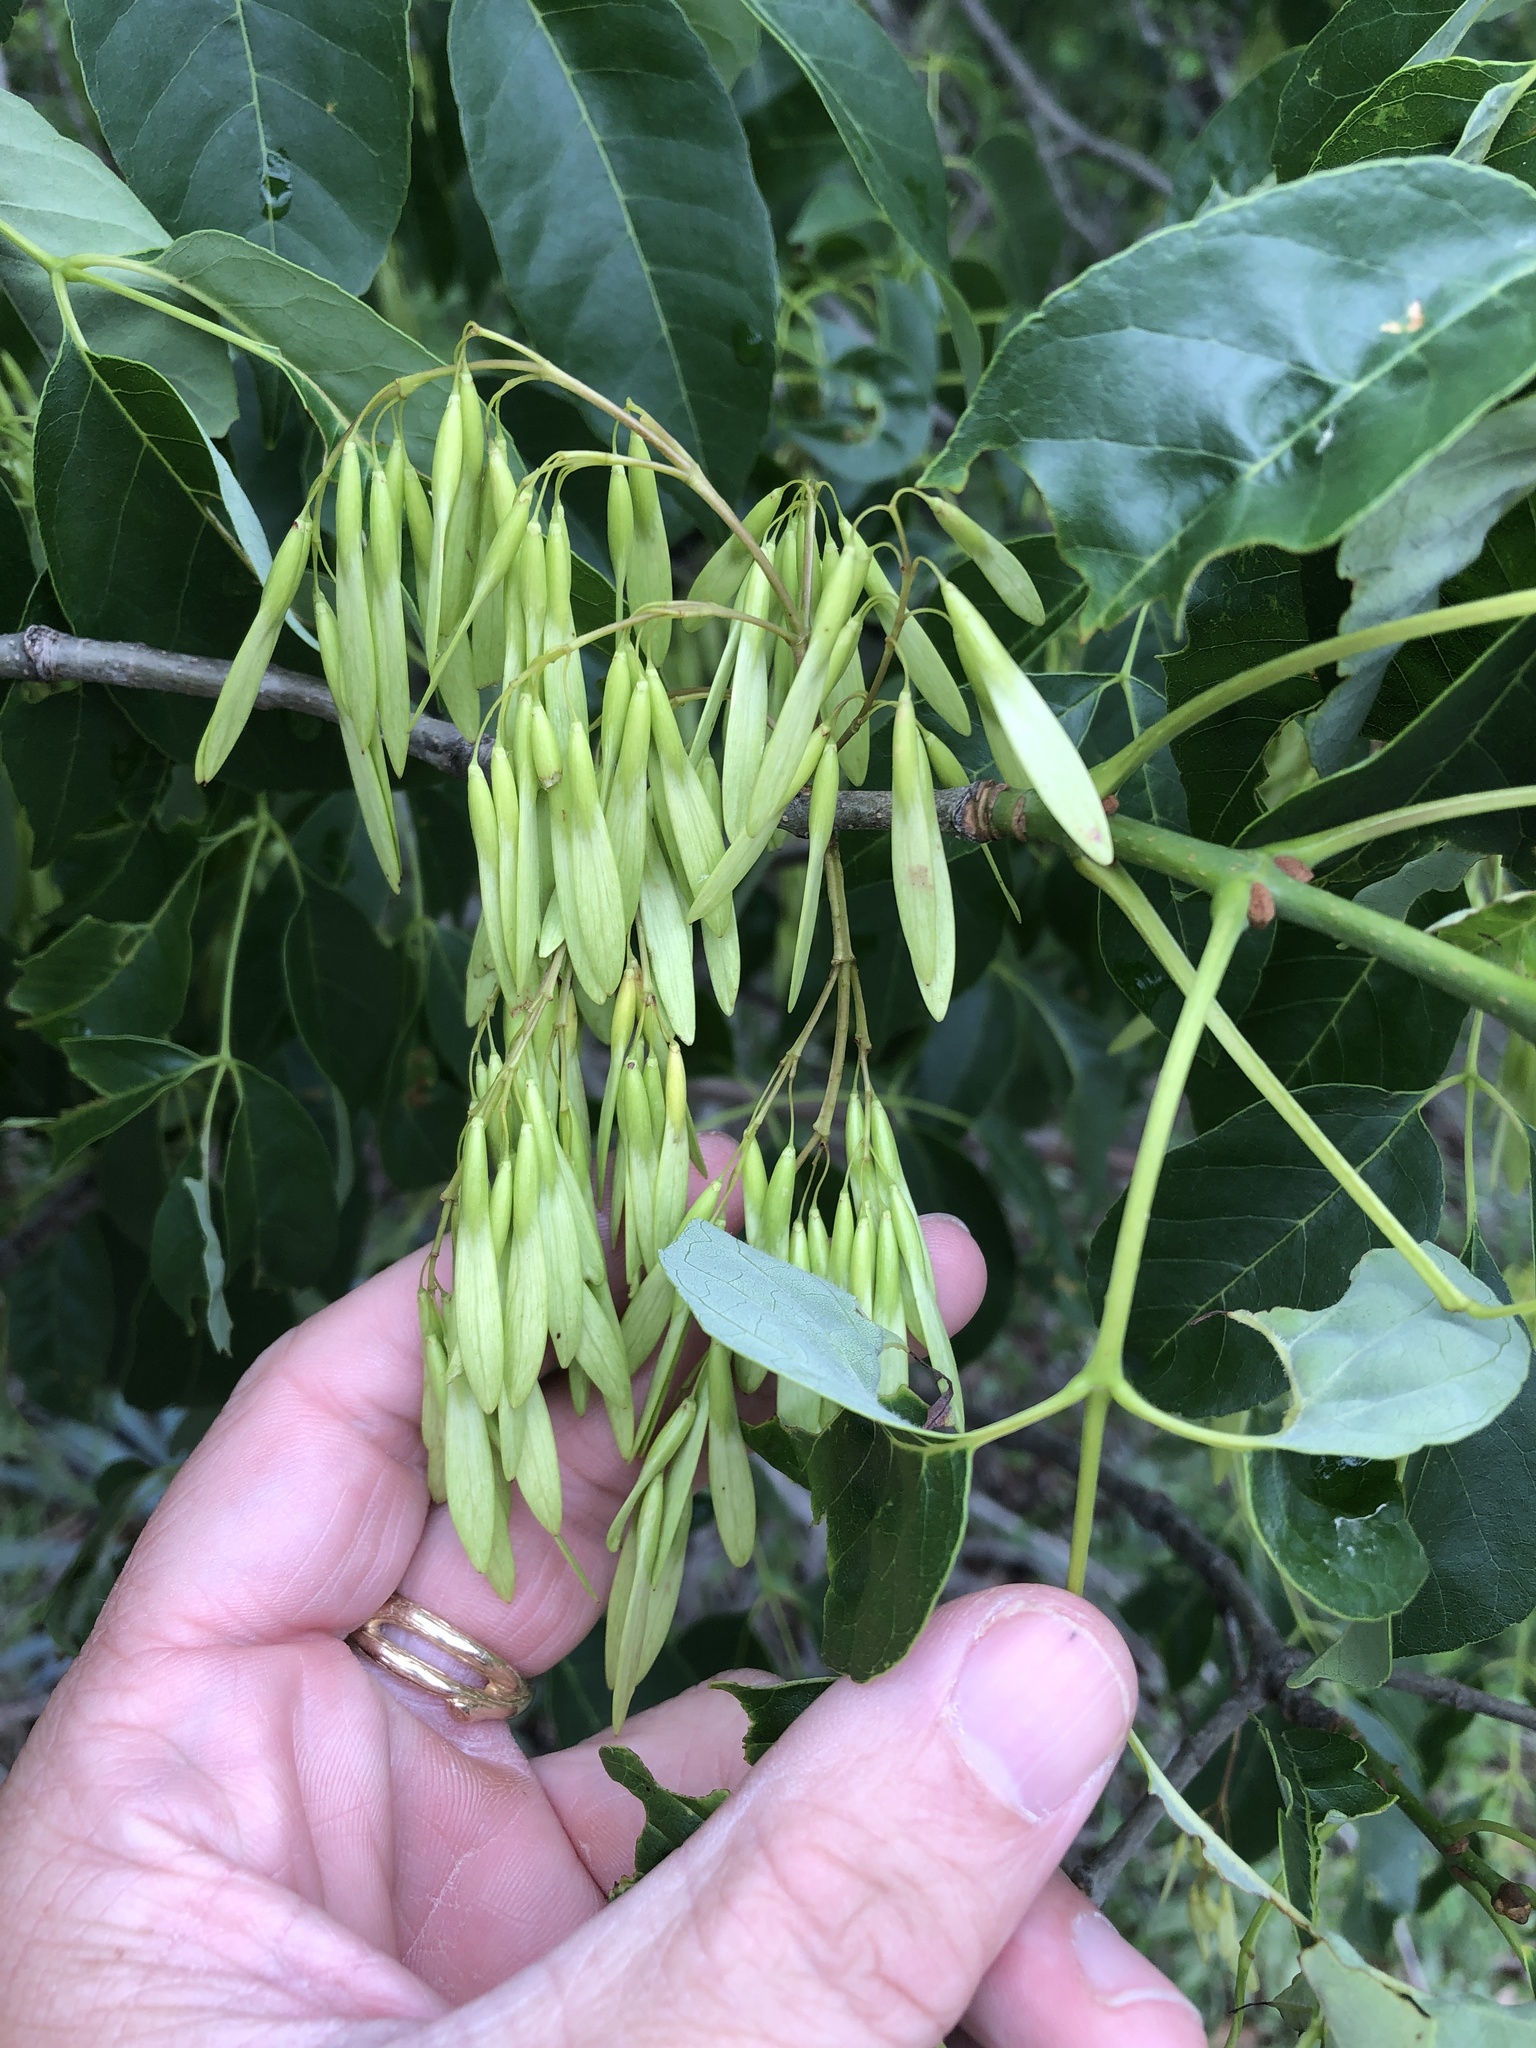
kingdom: Plantae
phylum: Tracheophyta
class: Magnoliopsida
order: Lamiales
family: Oleaceae
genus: Fraxinus
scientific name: Fraxinus albicans
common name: Texas ash
